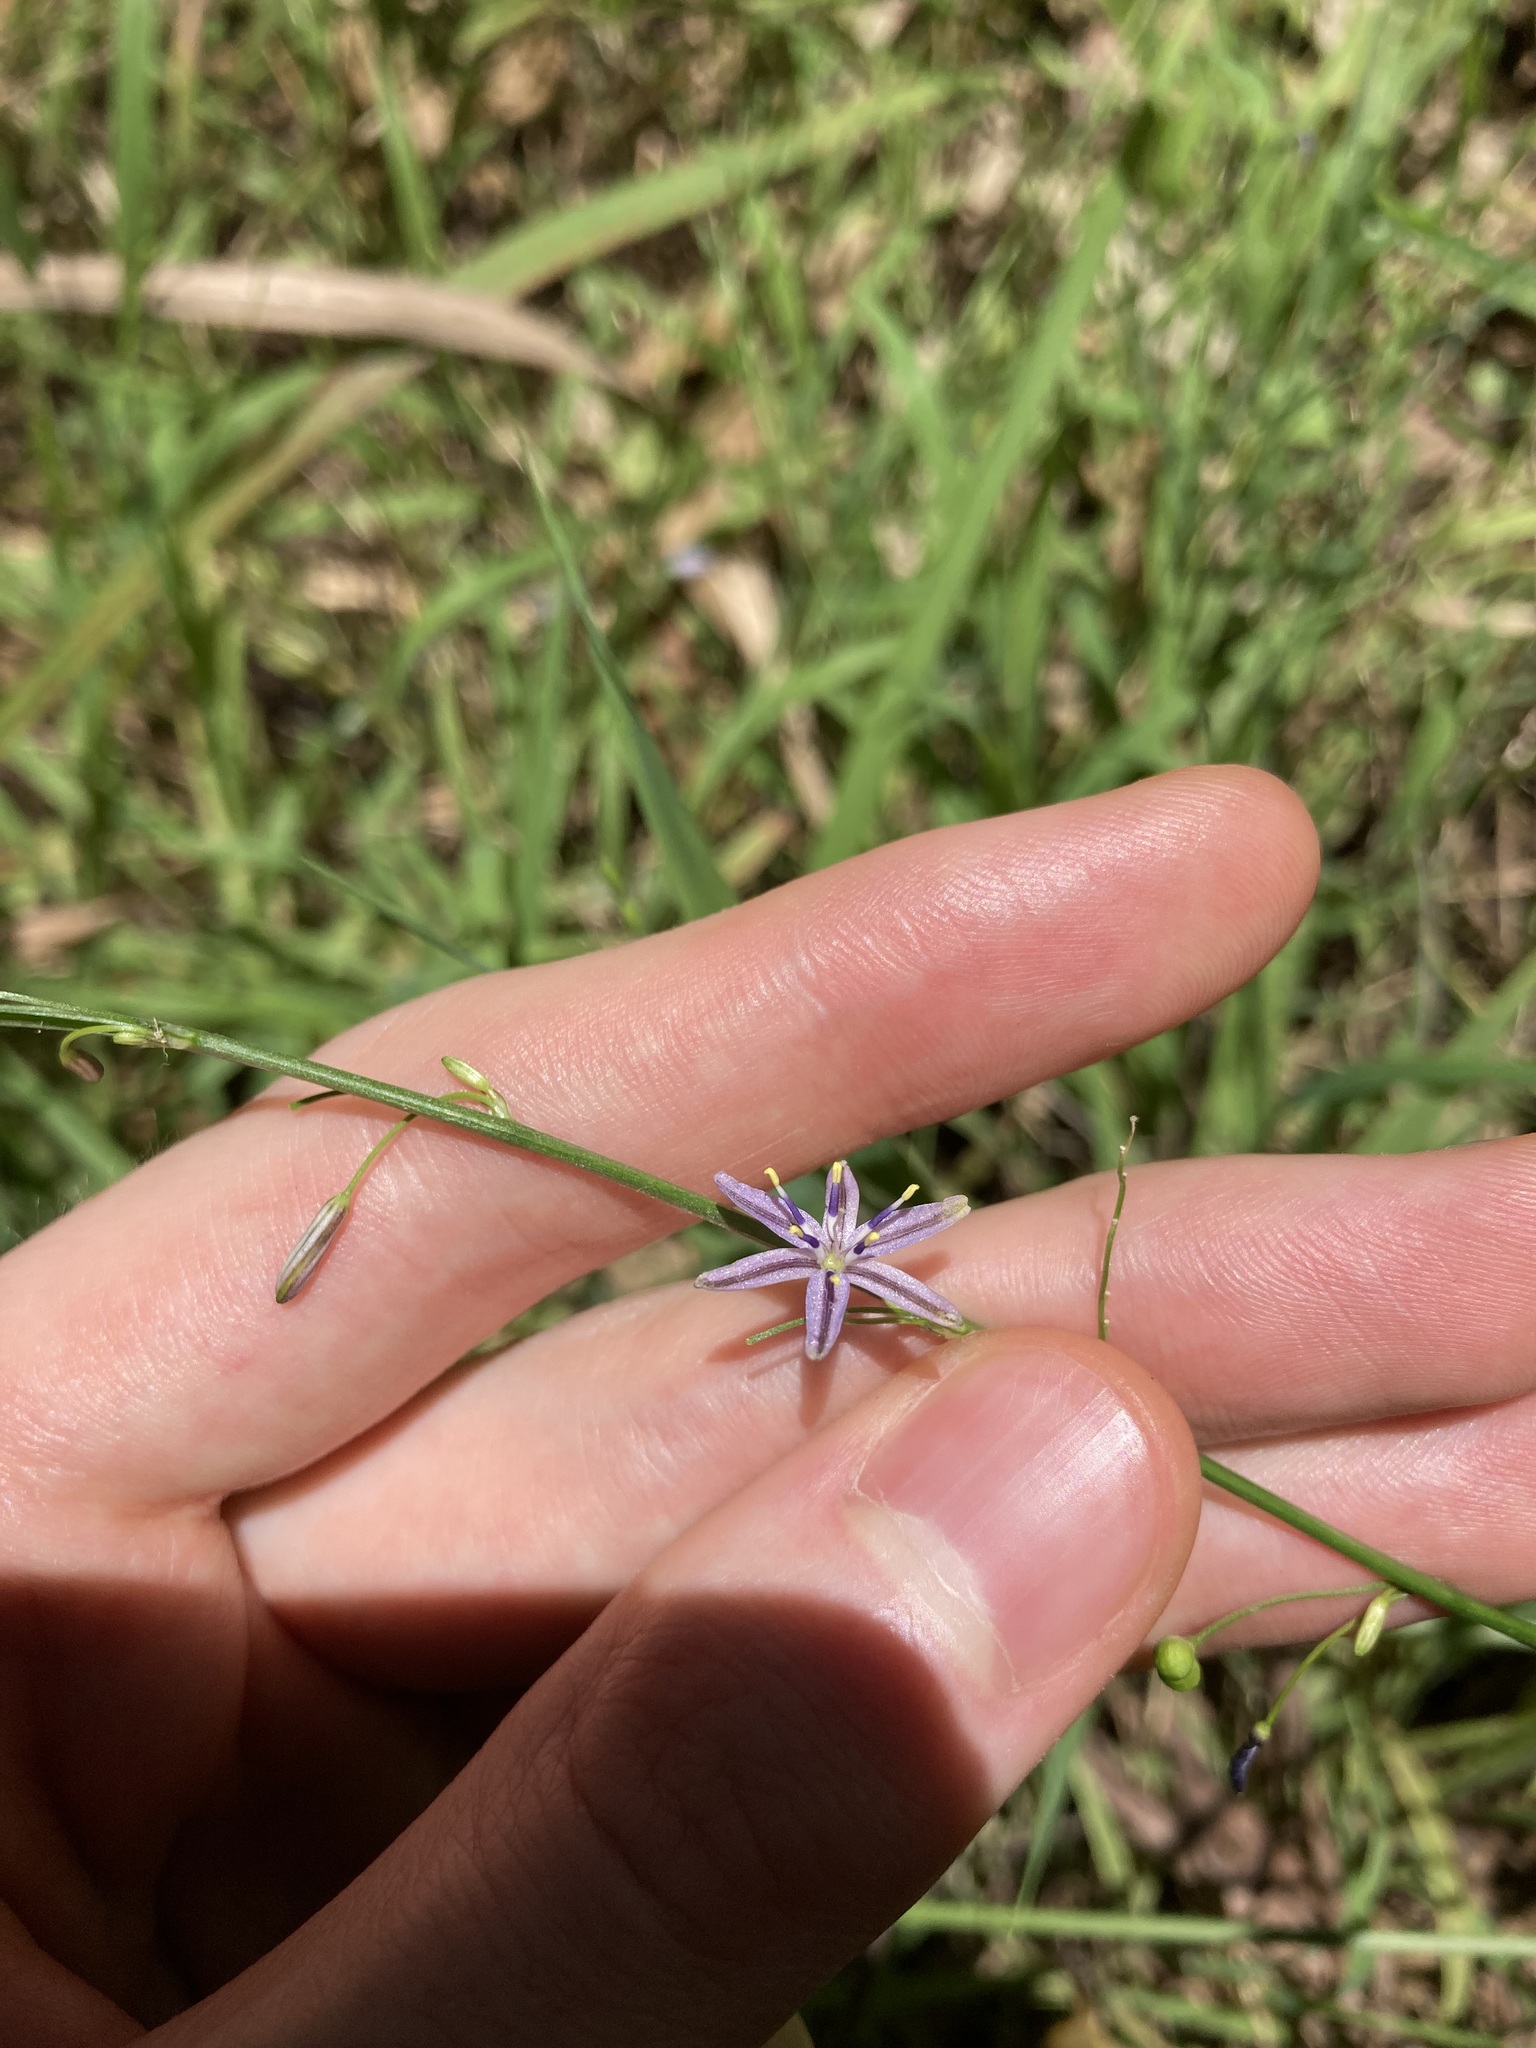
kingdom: Plantae
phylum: Tracheophyta
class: Liliopsida
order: Asparagales
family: Asphodelaceae
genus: Caesia
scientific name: Caesia parviflora
